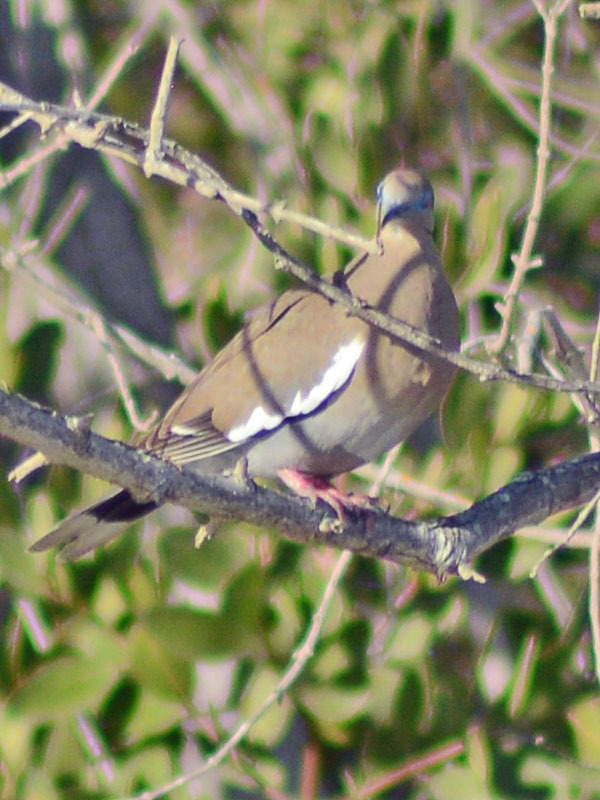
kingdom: Animalia
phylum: Chordata
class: Aves
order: Columbiformes
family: Columbidae
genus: Zenaida
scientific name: Zenaida asiatica
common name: White-winged dove
